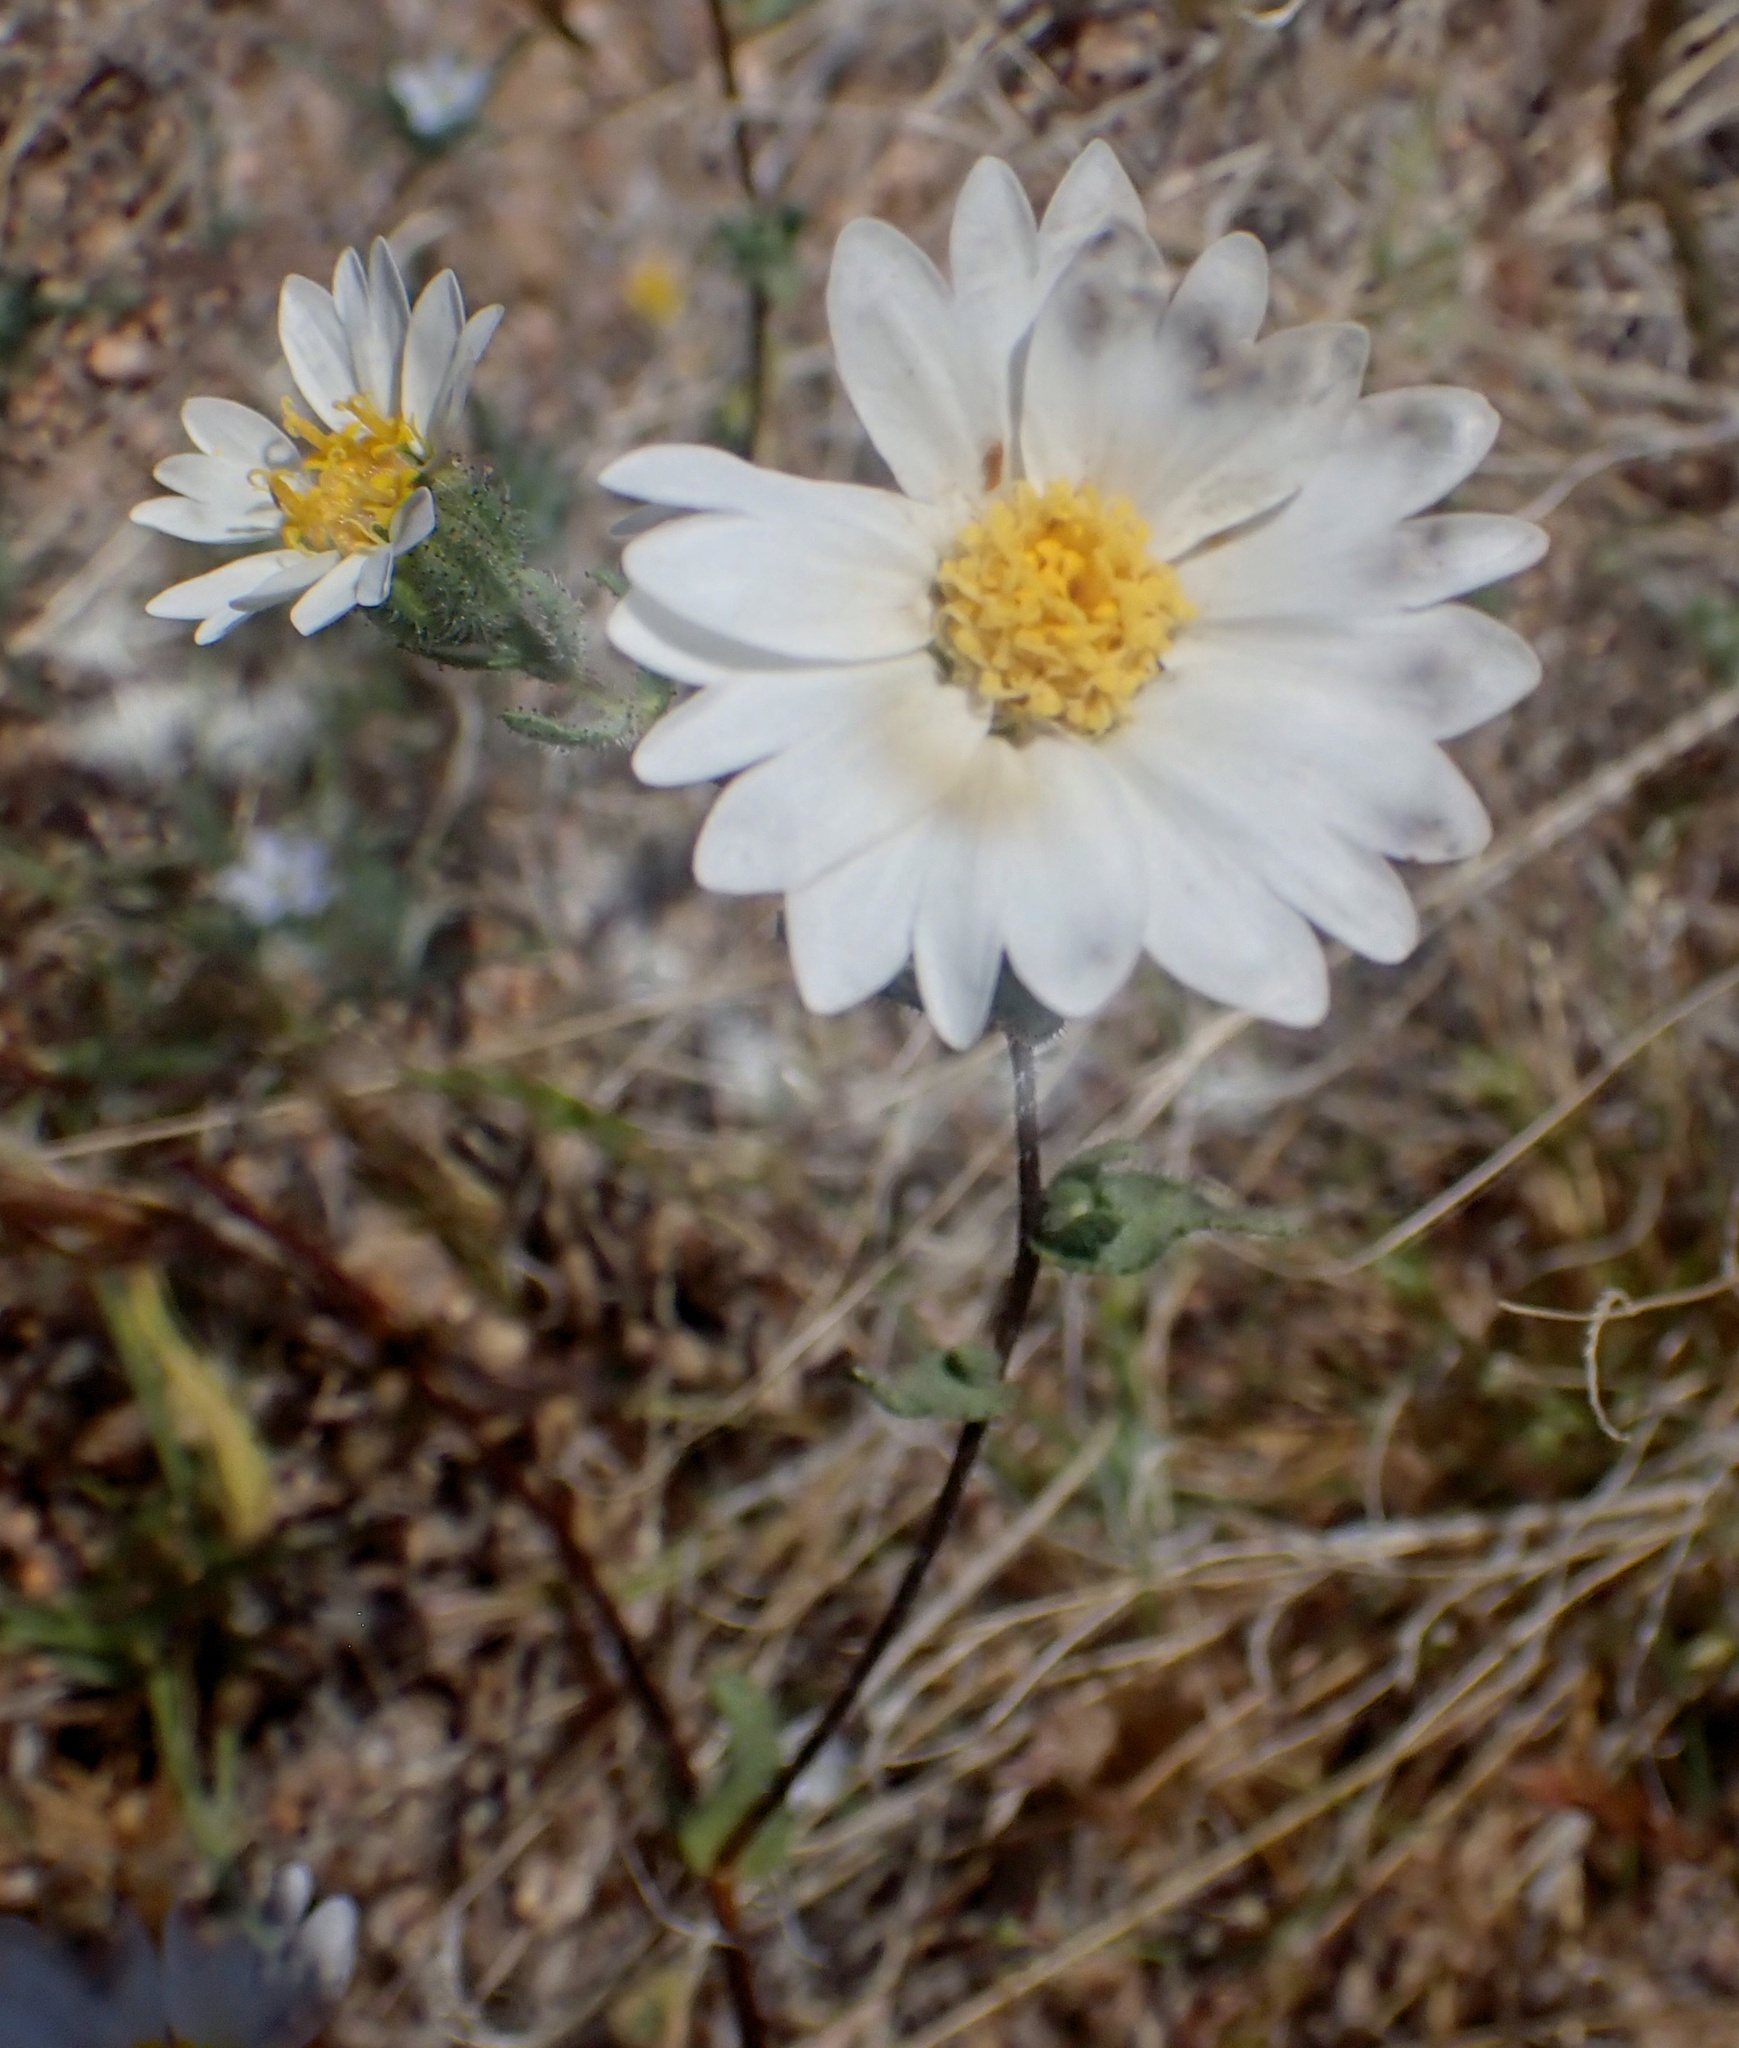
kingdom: Plantae
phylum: Tracheophyta
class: Magnoliopsida
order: Asterales
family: Asteraceae
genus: Layia
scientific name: Layia glandulosa
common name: White layia
